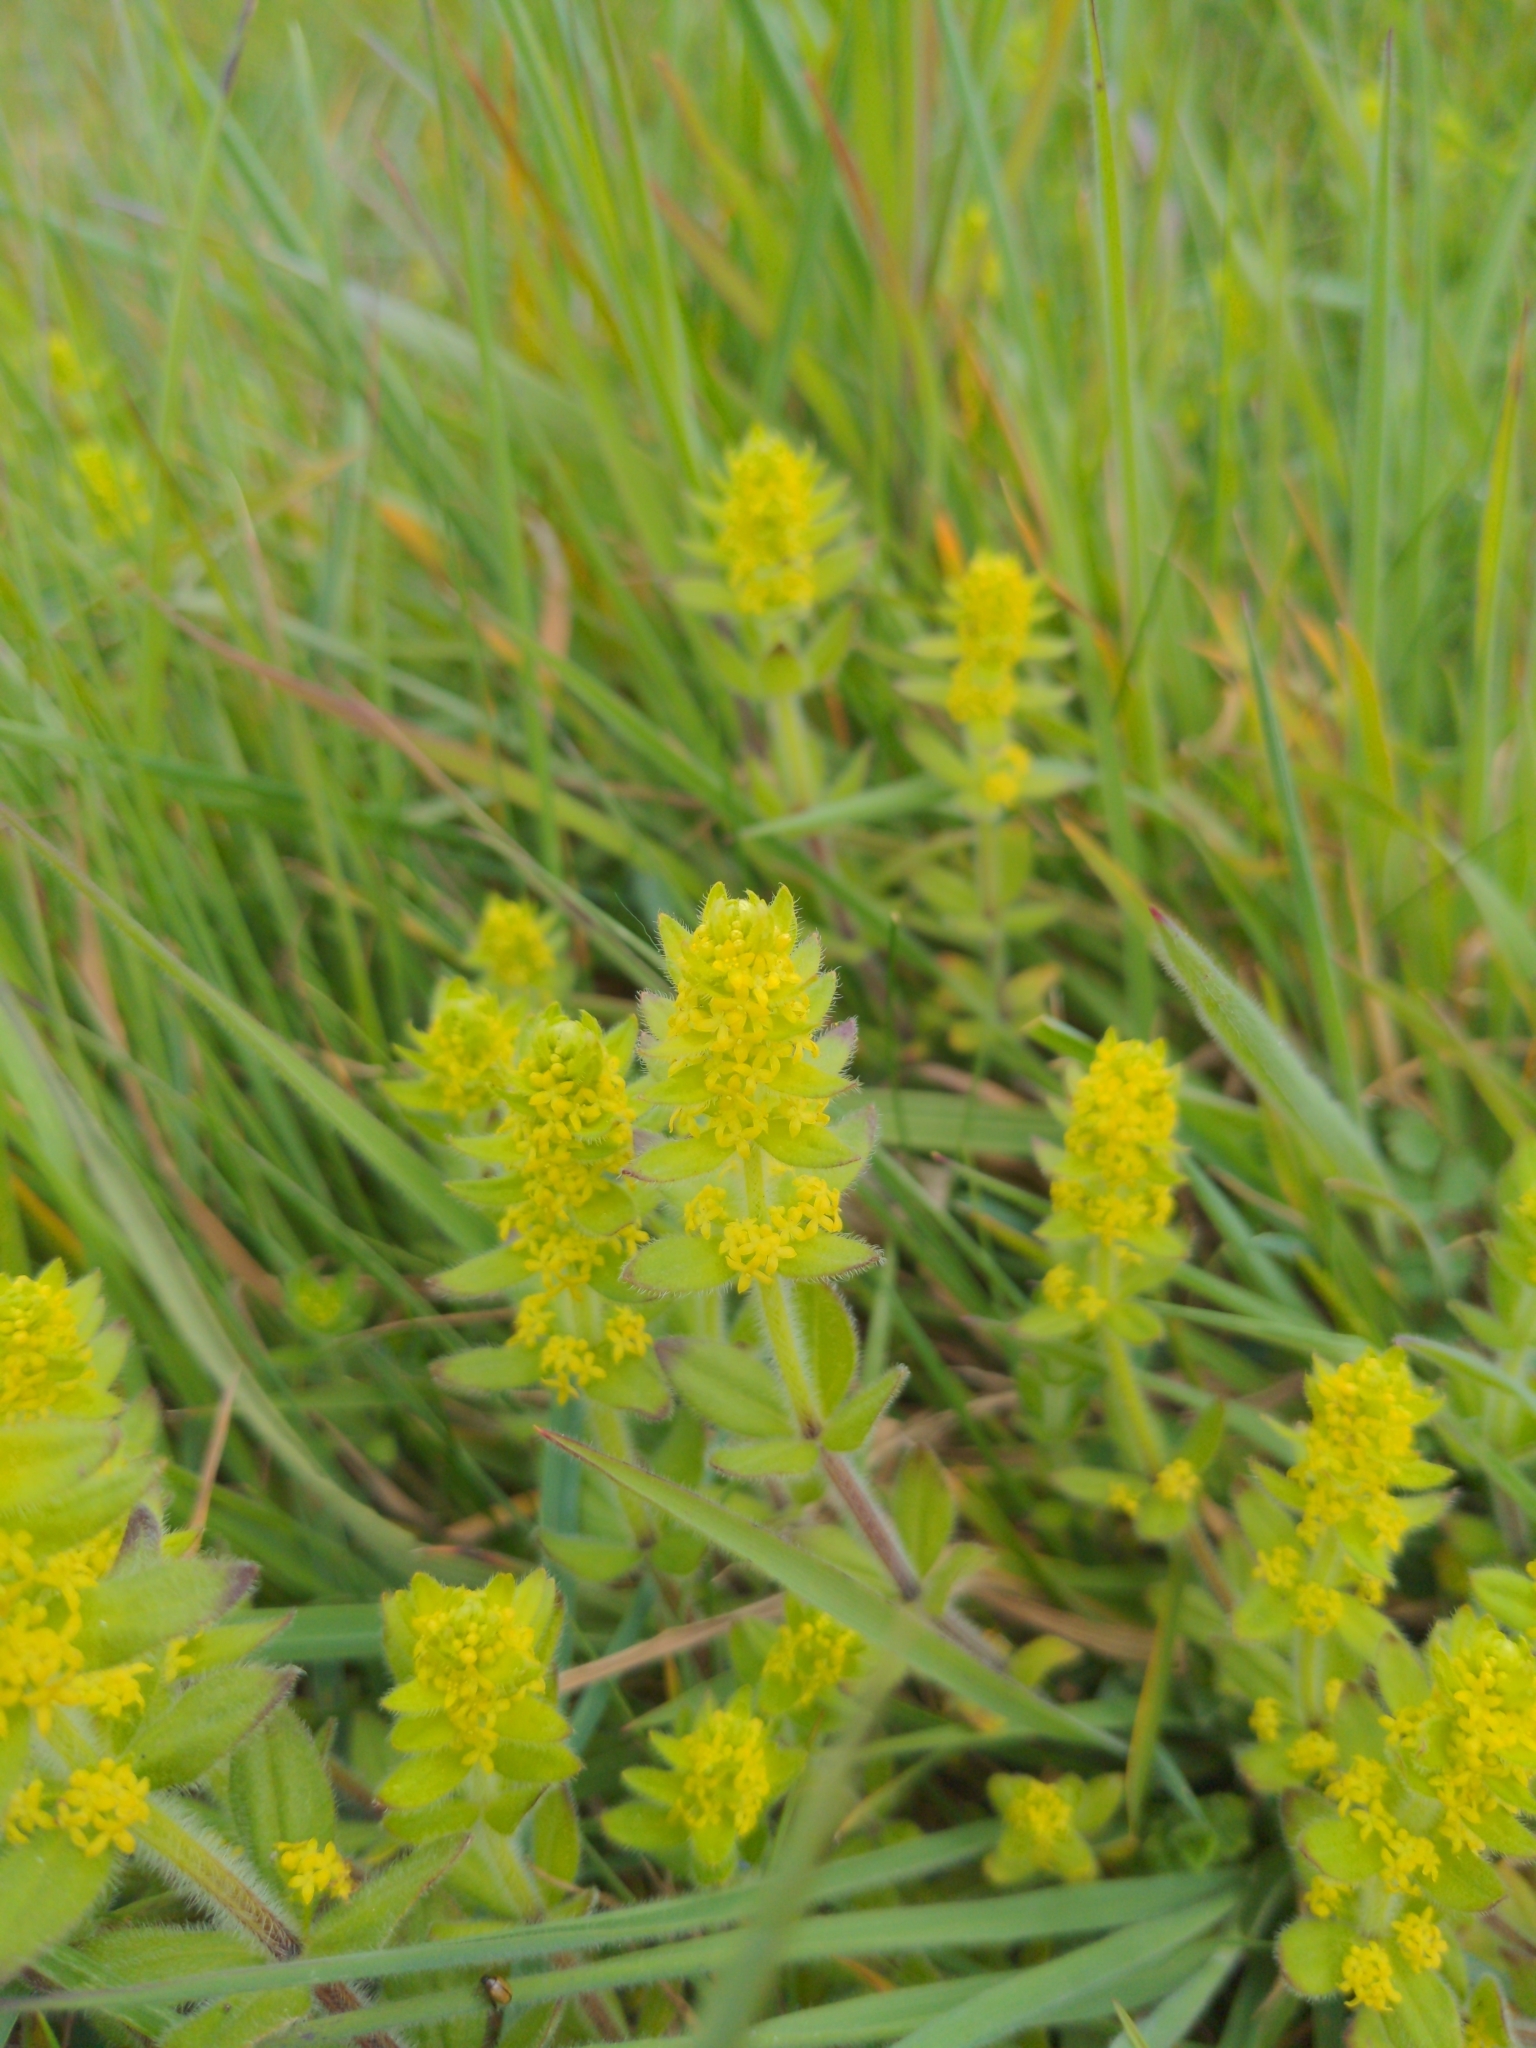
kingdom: Plantae
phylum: Tracheophyta
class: Magnoliopsida
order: Gentianales
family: Rubiaceae
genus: Cruciata
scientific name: Cruciata laevipes
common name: Crosswort
